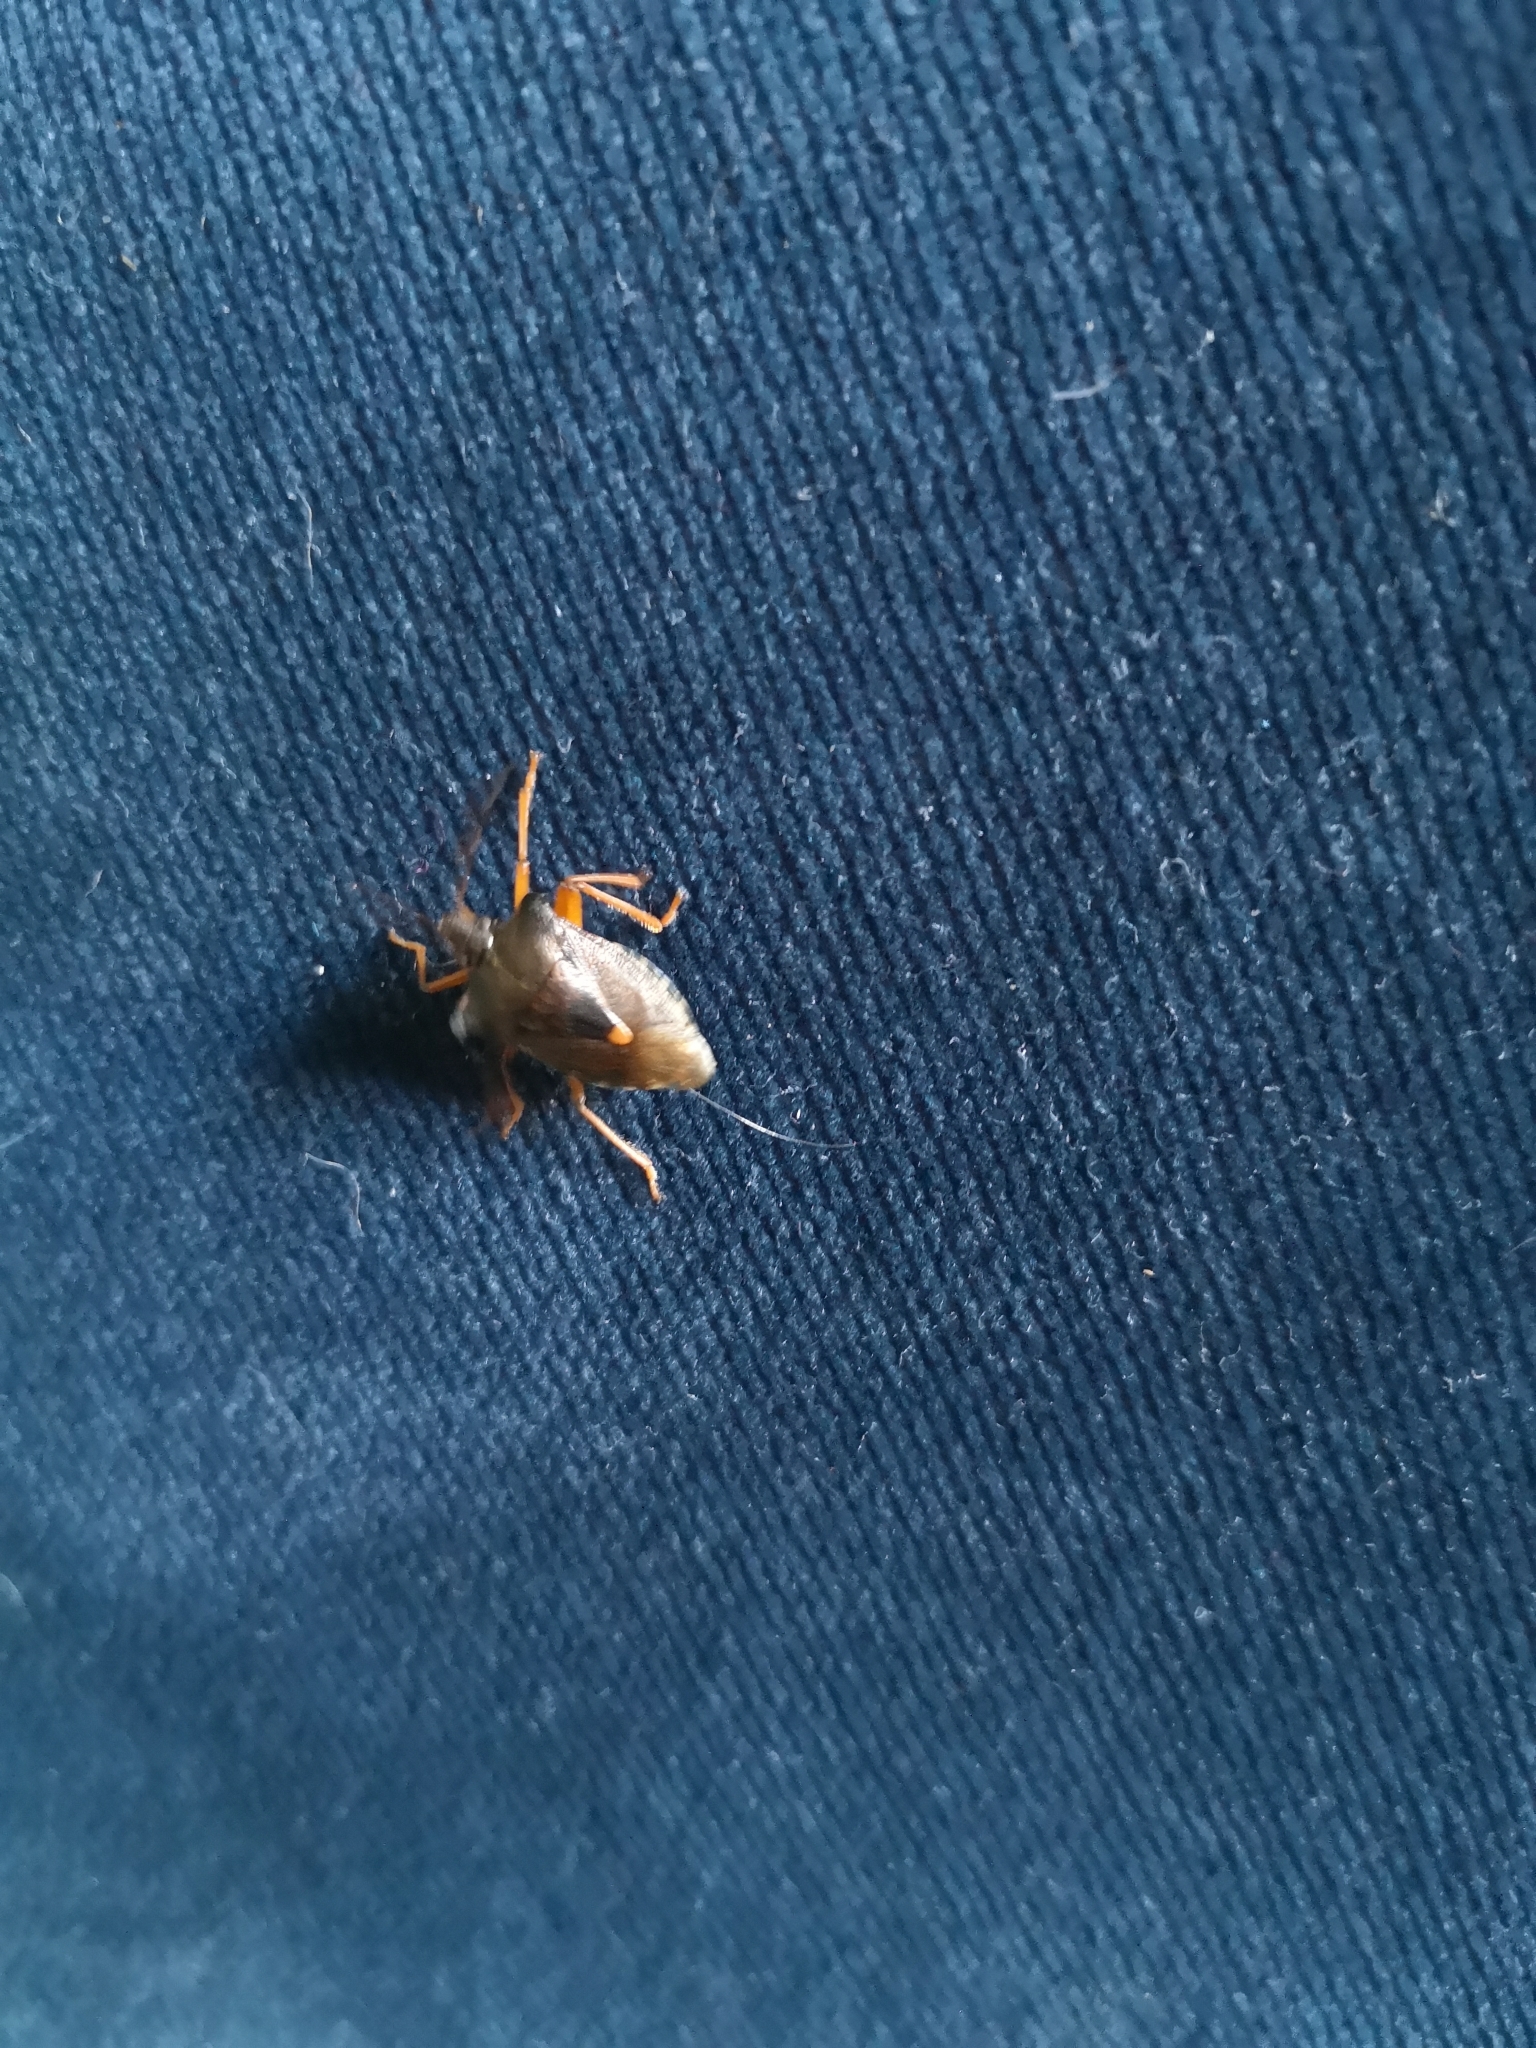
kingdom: Animalia
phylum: Arthropoda
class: Insecta
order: Hemiptera
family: Pentatomidae
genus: Pentatoma
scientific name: Pentatoma rufipes
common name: Forest bug
